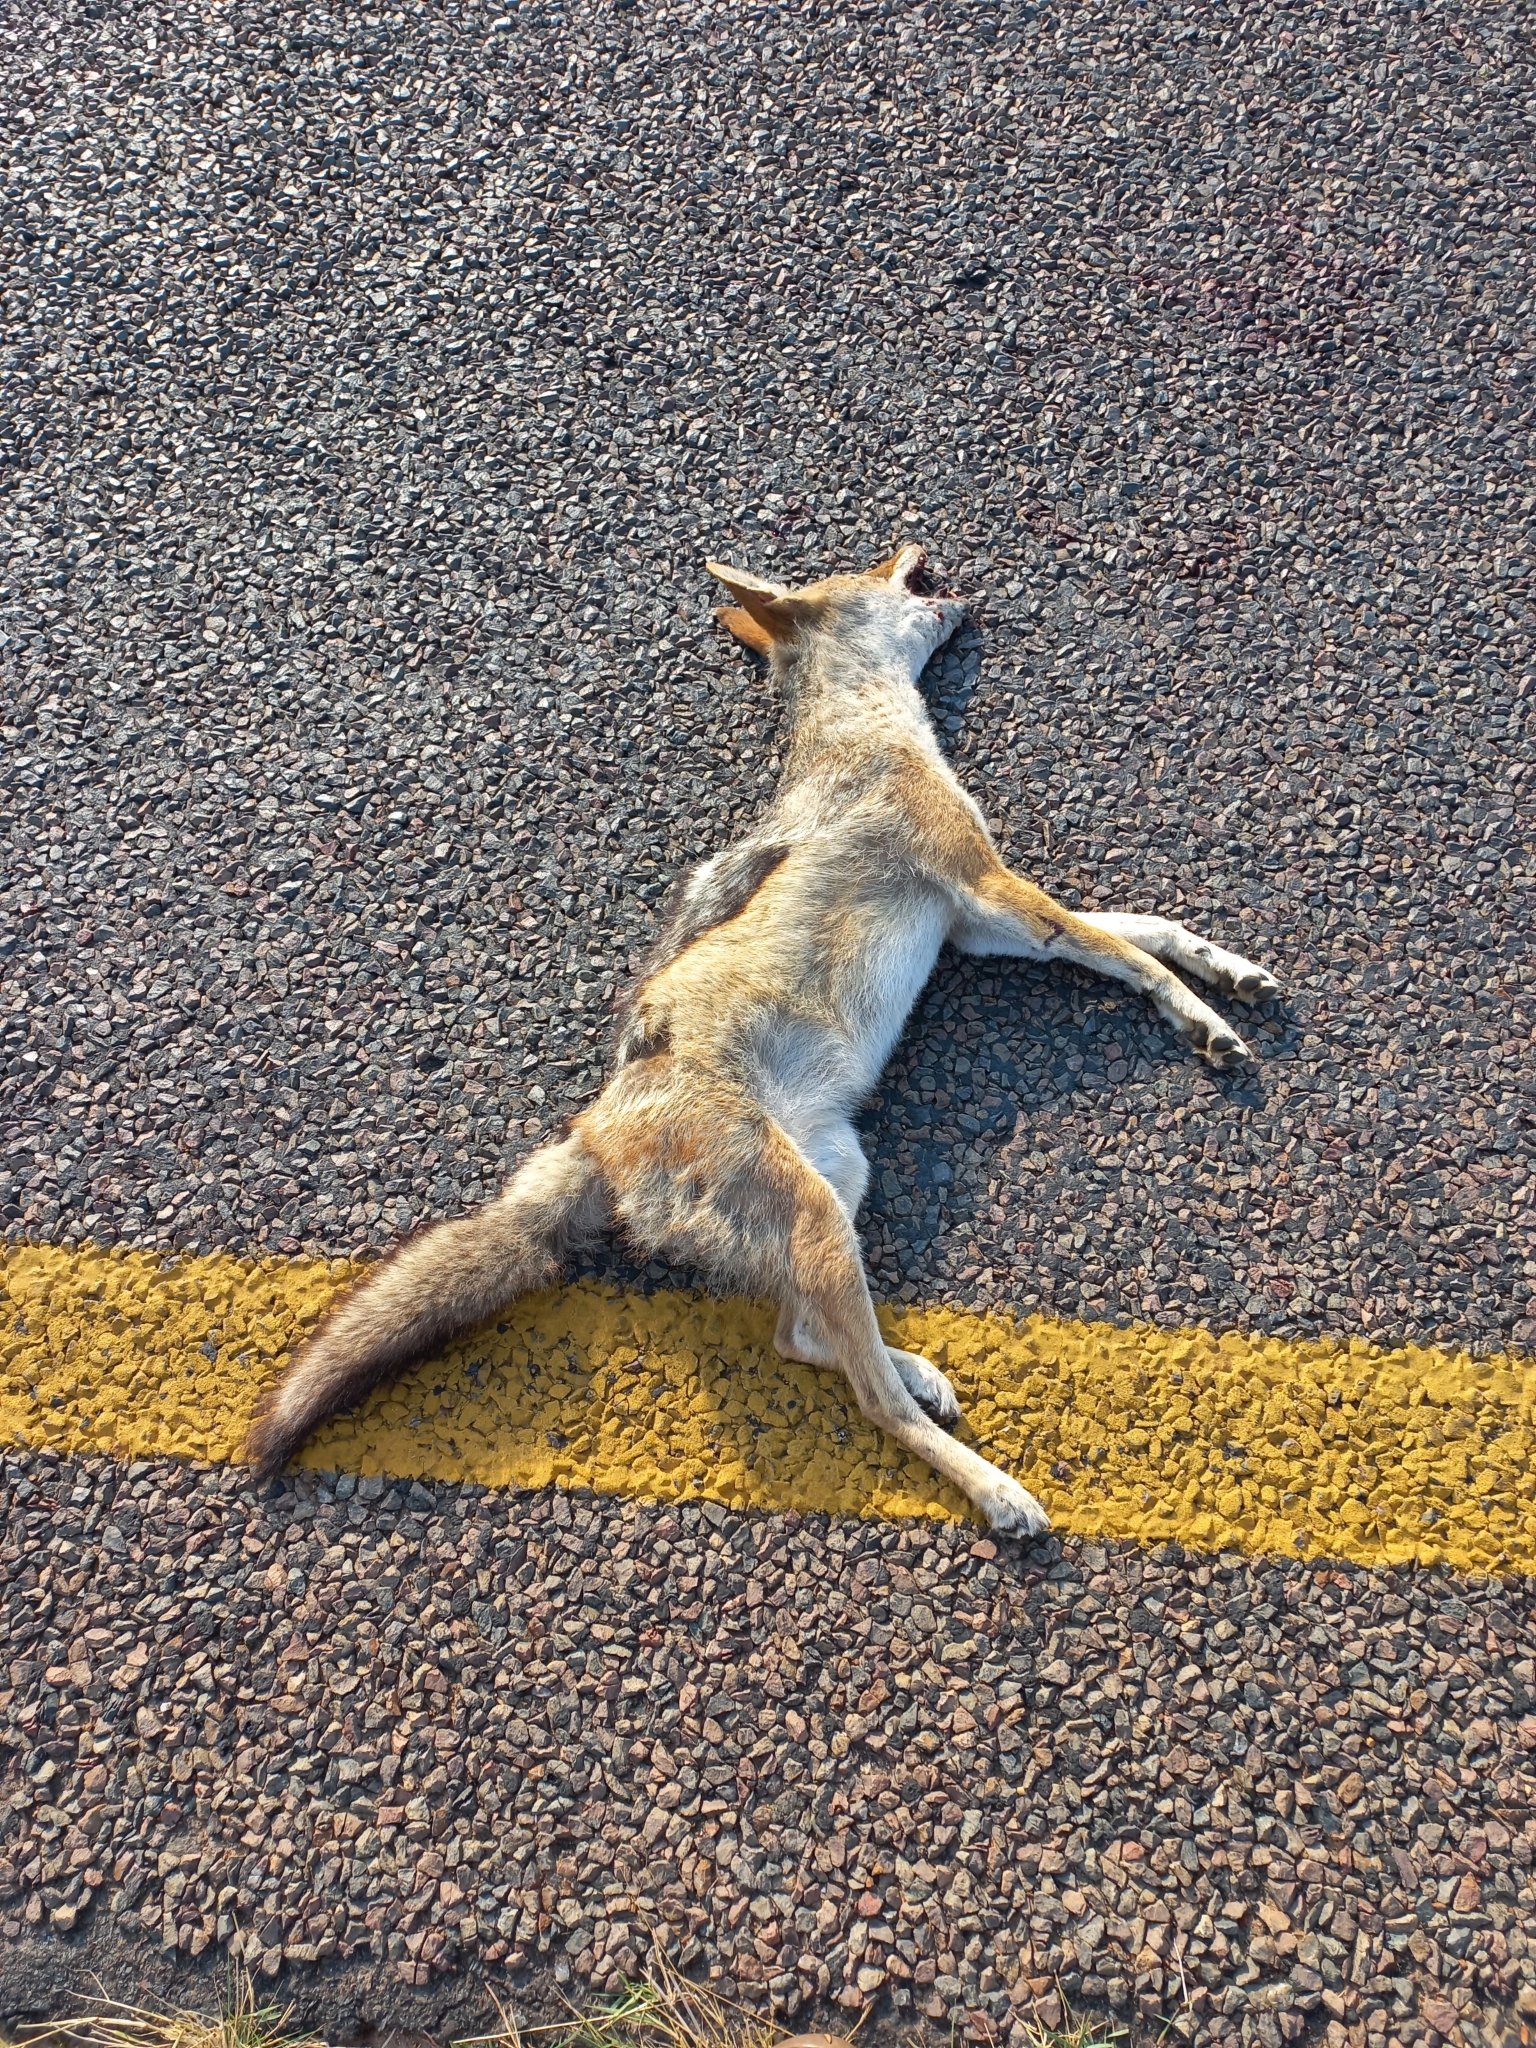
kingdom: Animalia
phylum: Chordata
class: Mammalia
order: Carnivora
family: Canidae
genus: Lupulella
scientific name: Lupulella
